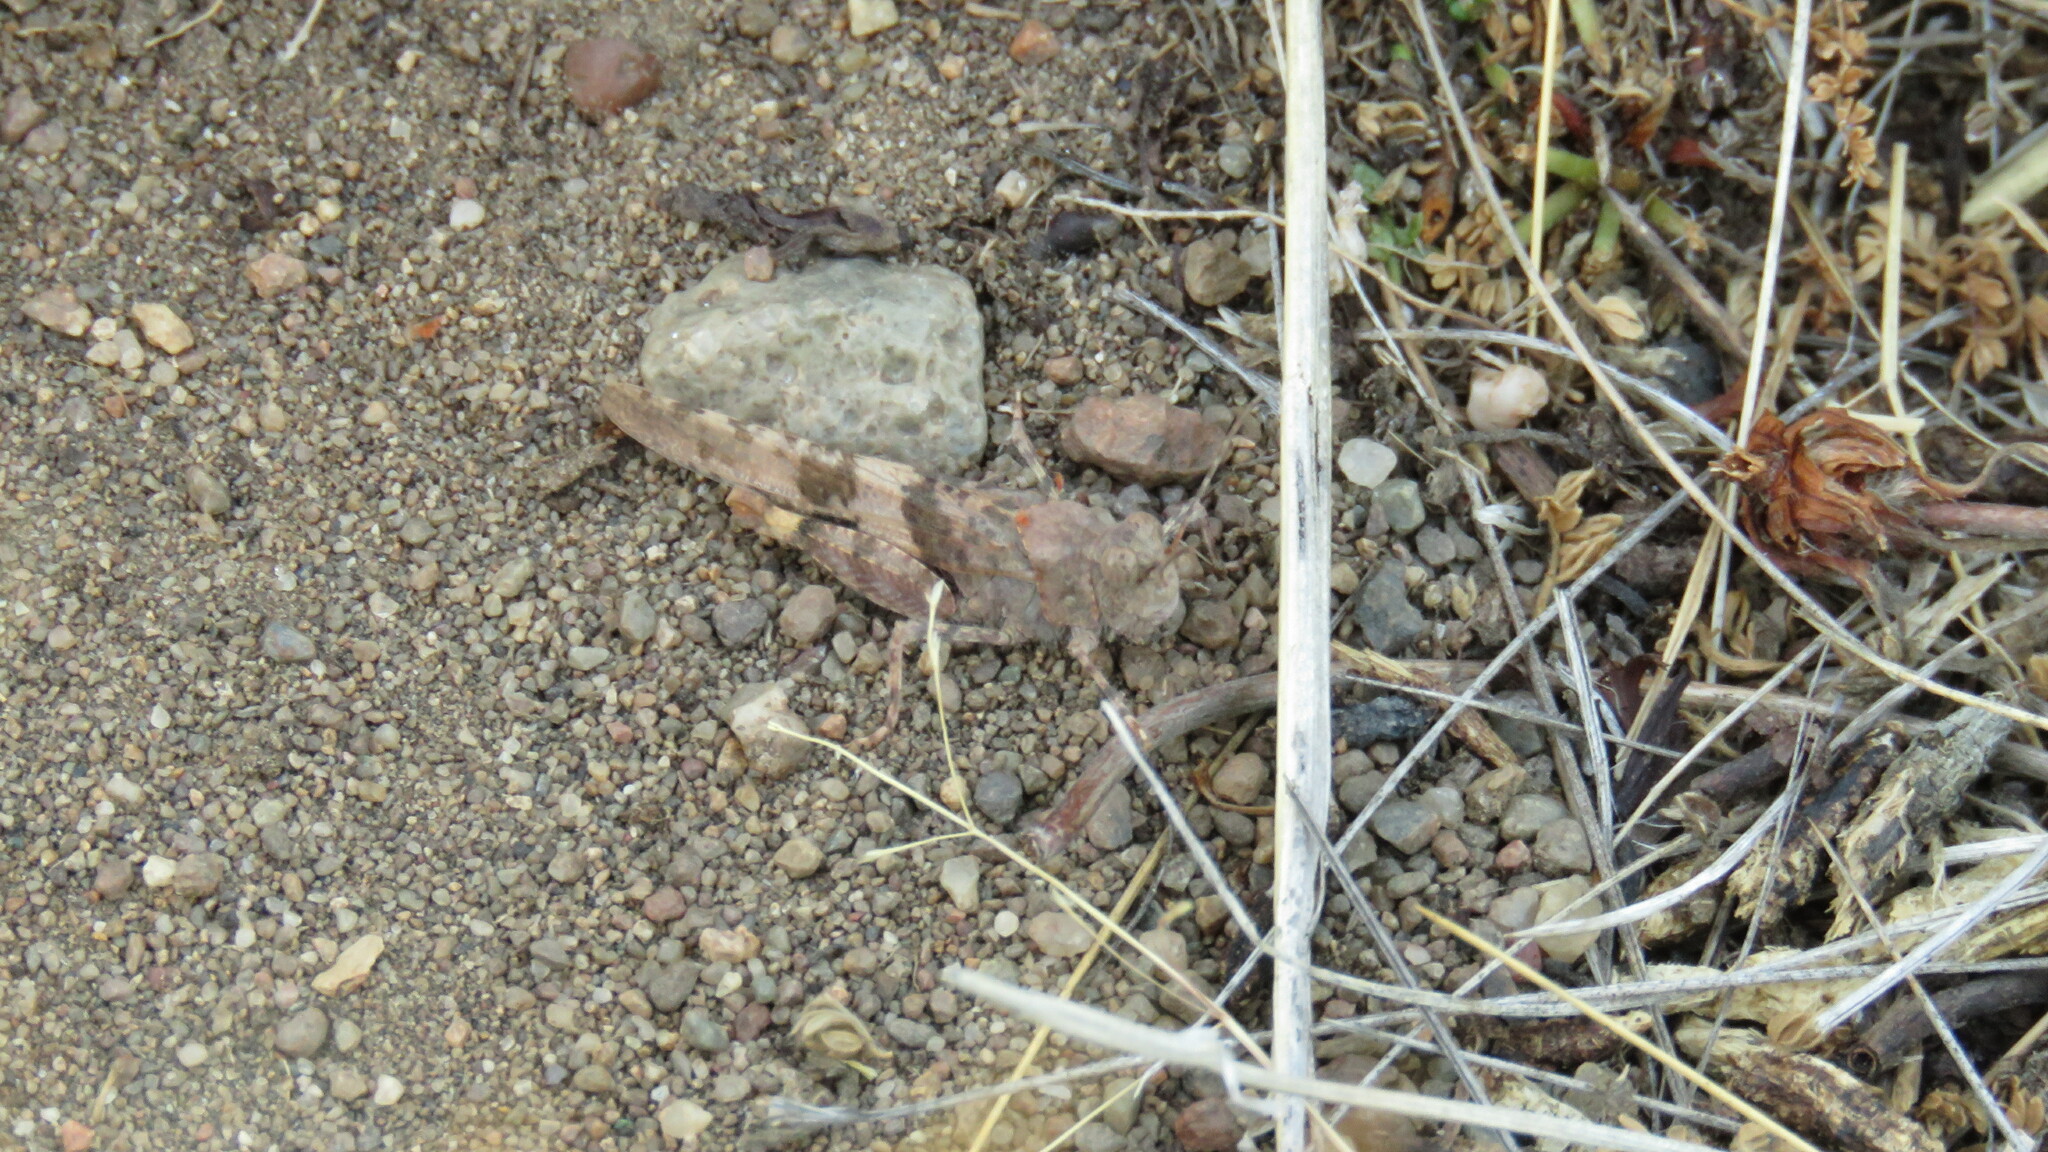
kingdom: Animalia
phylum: Arthropoda
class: Insecta
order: Orthoptera
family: Acrididae
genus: Trimerotropis
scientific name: Trimerotropis pallidipennis
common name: Pallid-winged grasshopper
